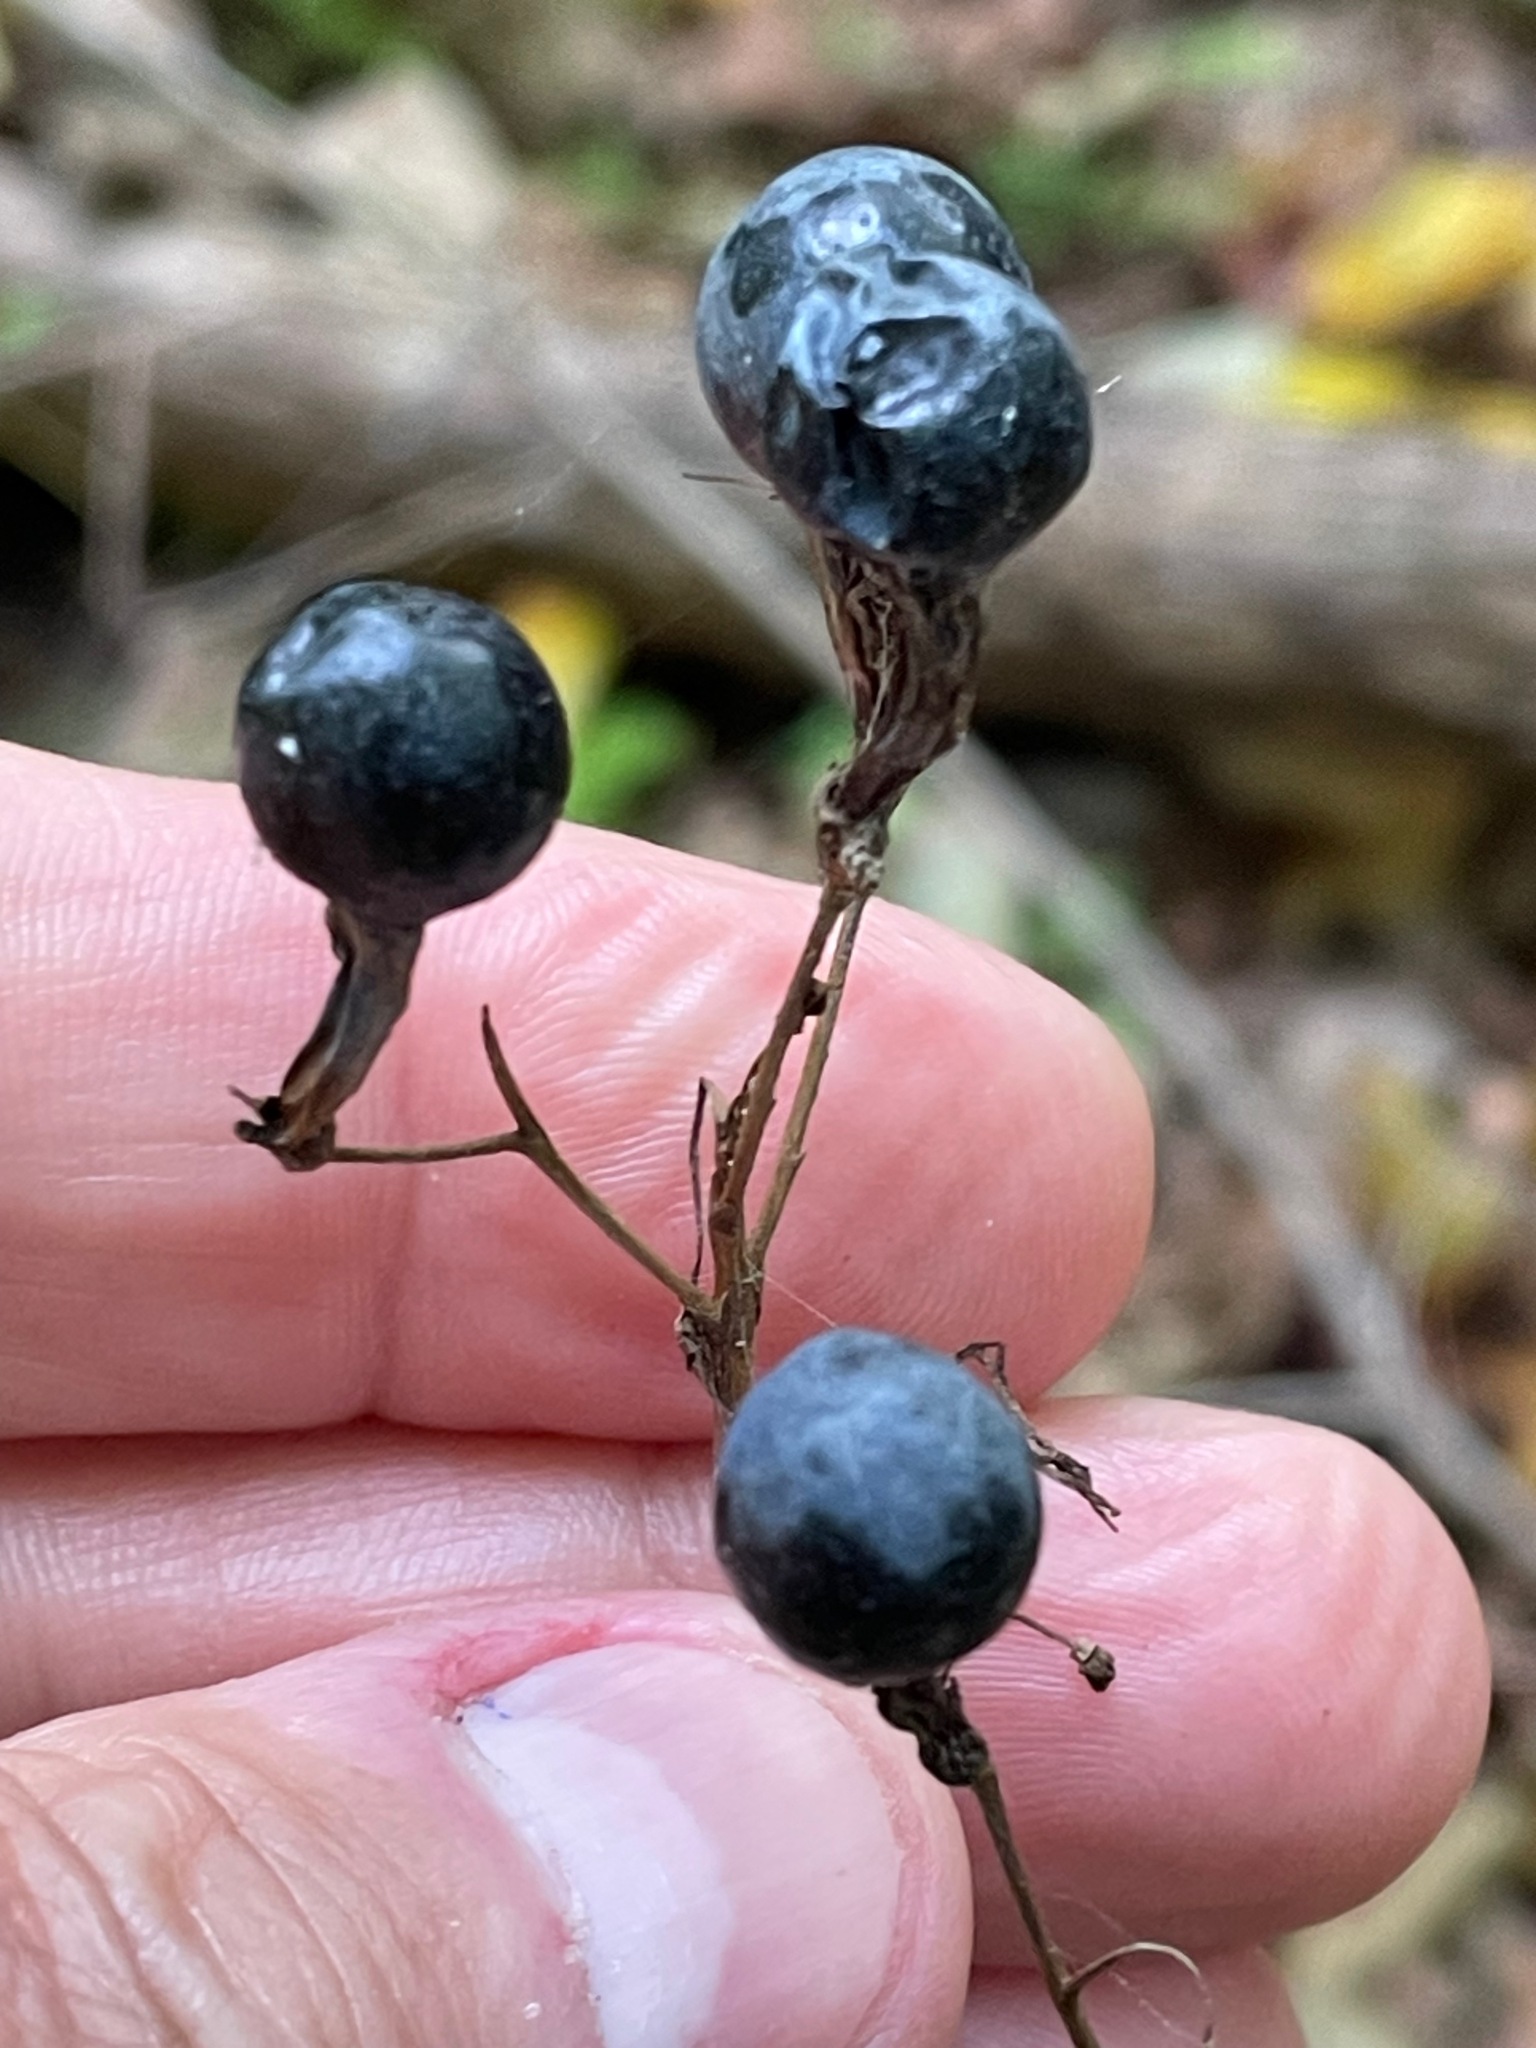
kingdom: Plantae
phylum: Tracheophyta
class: Magnoliopsida
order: Ranunculales
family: Berberidaceae
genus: Caulophyllum
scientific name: Caulophyllum
